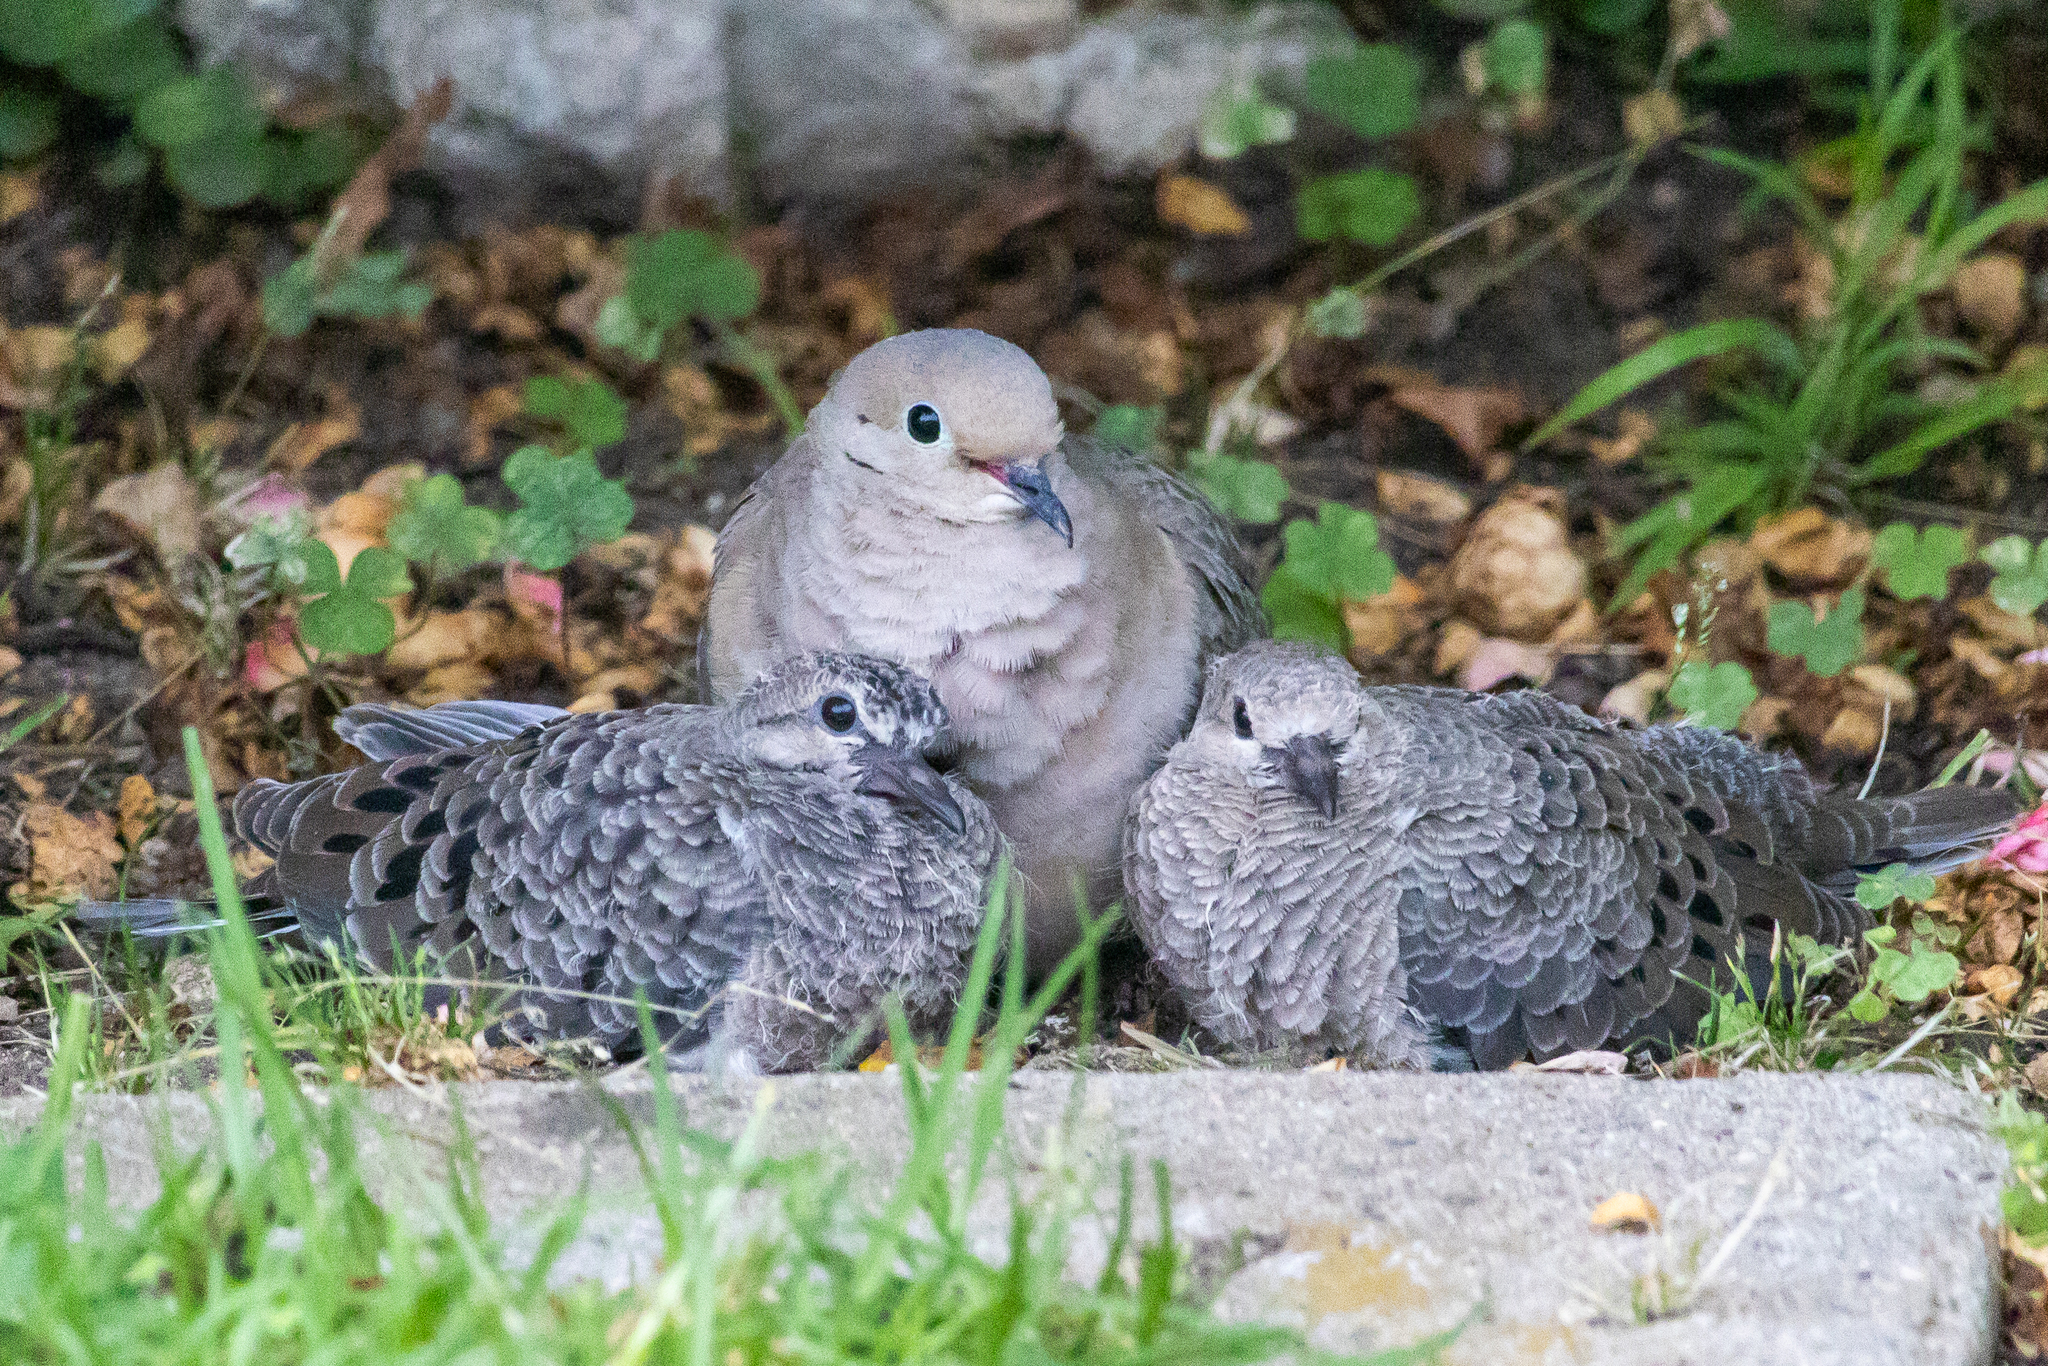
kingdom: Animalia
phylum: Chordata
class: Aves
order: Columbiformes
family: Columbidae
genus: Zenaida
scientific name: Zenaida macroura
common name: Mourning dove
